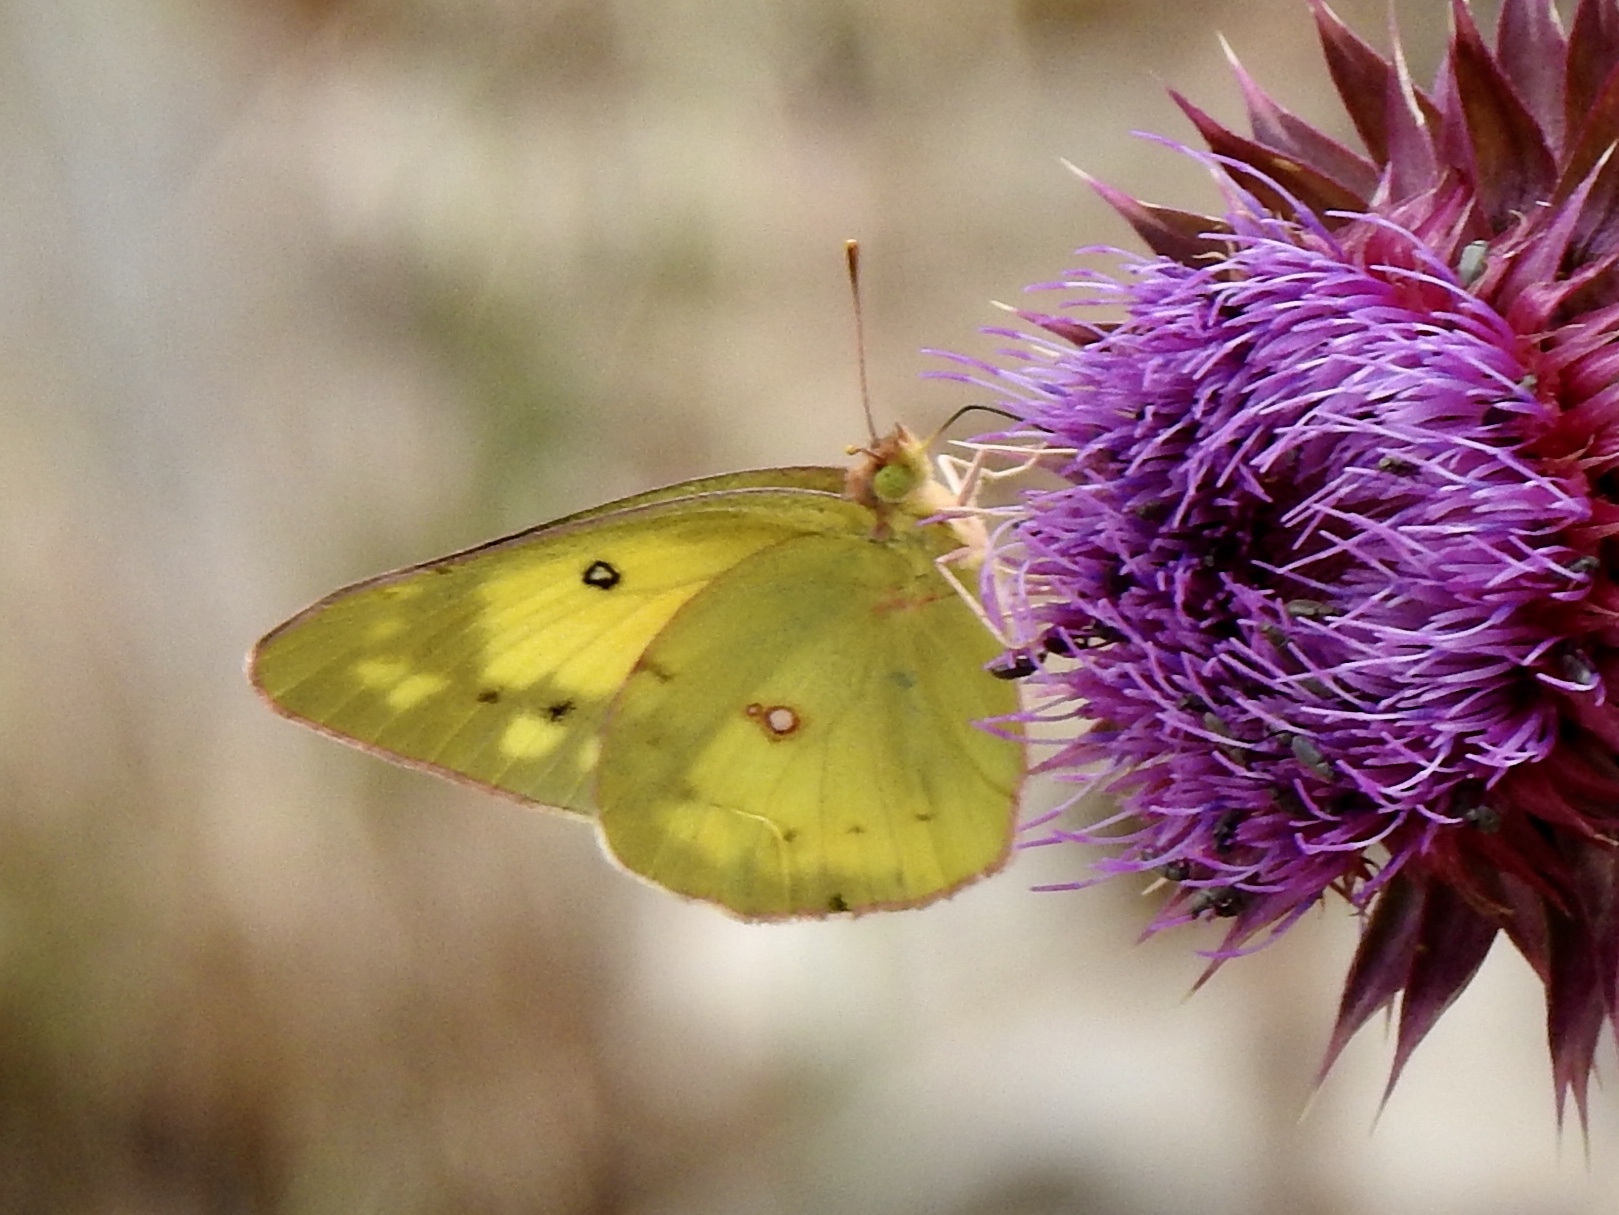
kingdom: Animalia
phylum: Arthropoda
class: Insecta
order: Lepidoptera
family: Pieridae
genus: Colias
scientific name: Colias eurytheme
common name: Alfalfa butterfly
